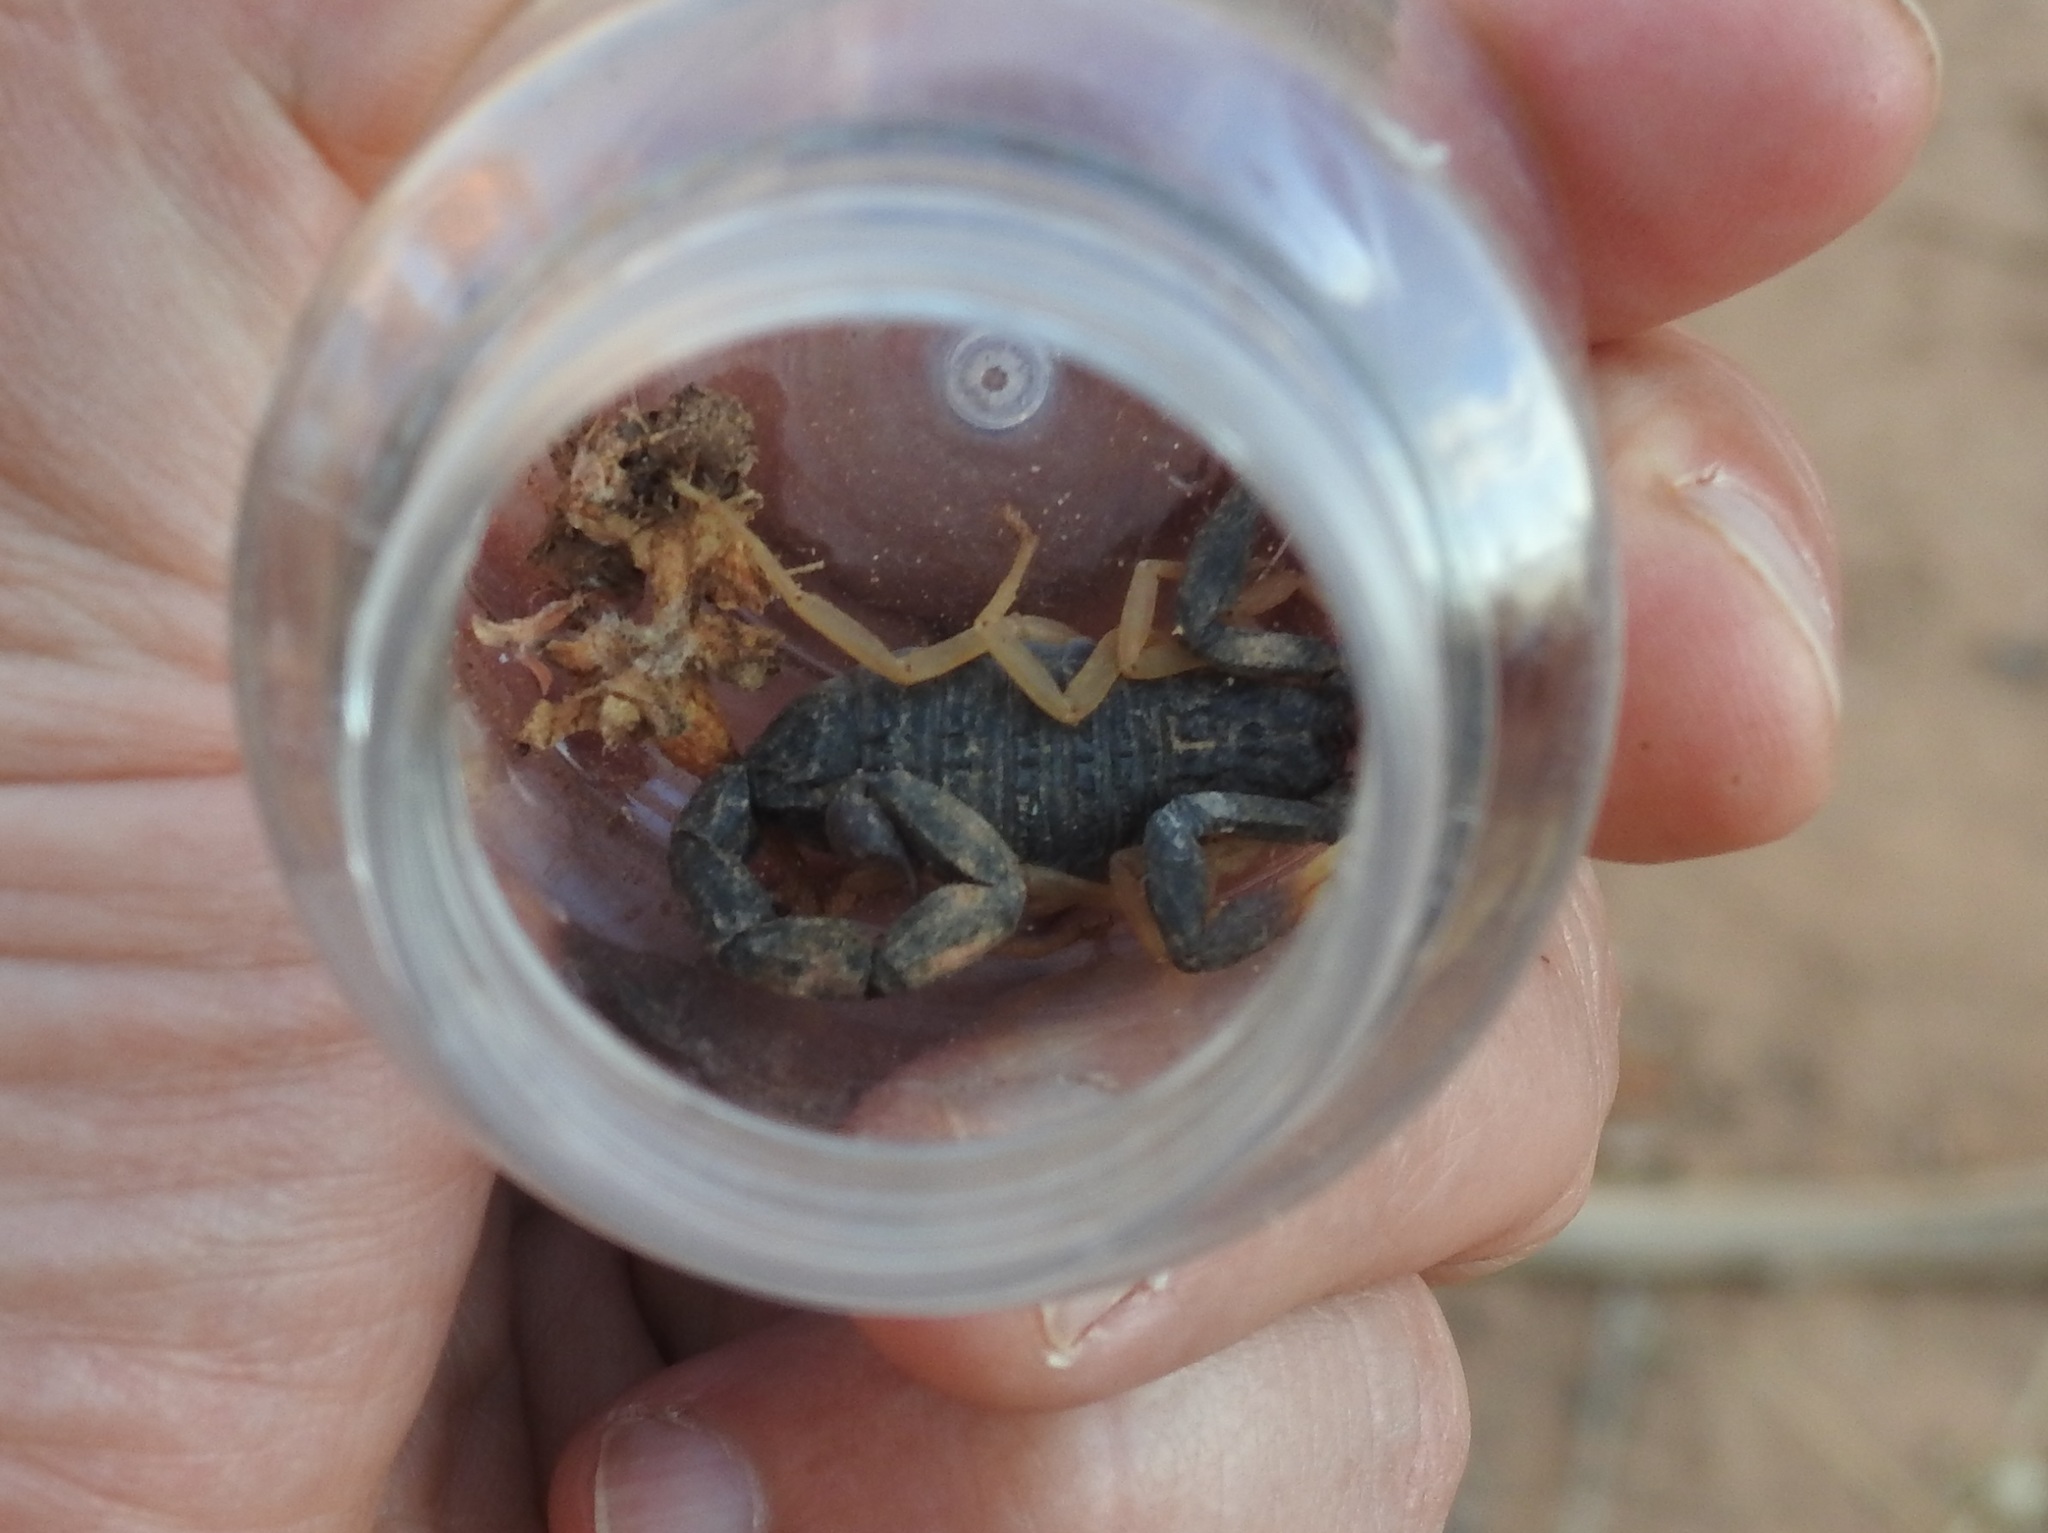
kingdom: Animalia
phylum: Arthropoda
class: Arachnida
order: Scorpiones
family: Buthidae
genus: Hottentotta
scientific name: Hottentotta franzwerneri
